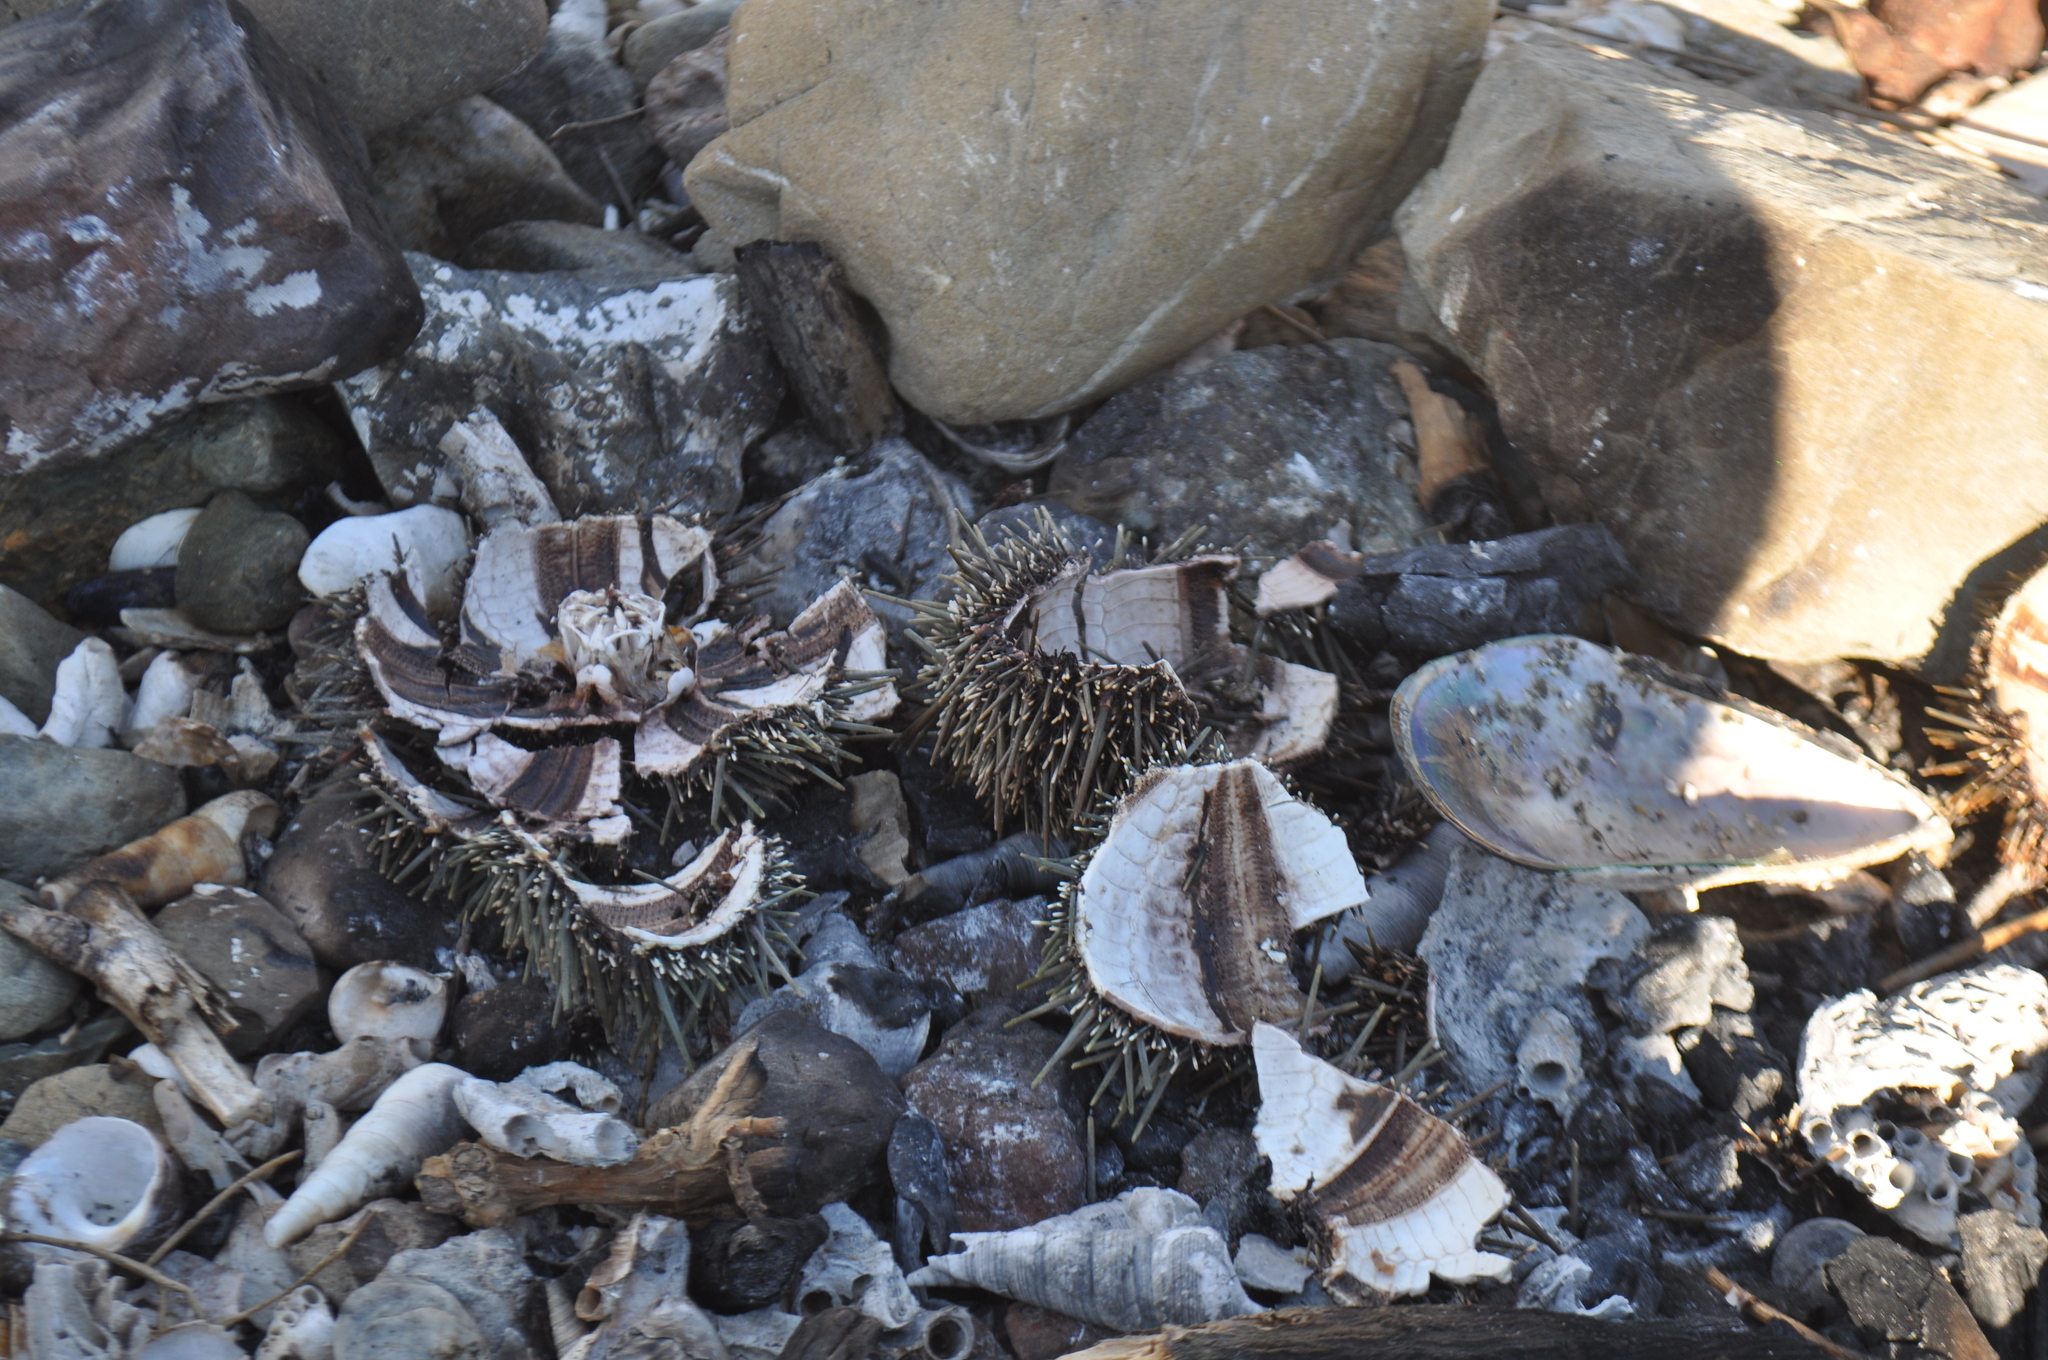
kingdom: Animalia
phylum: Echinodermata
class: Echinoidea
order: Camarodonta
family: Echinometridae
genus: Evechinus
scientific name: Evechinus chloroticus
